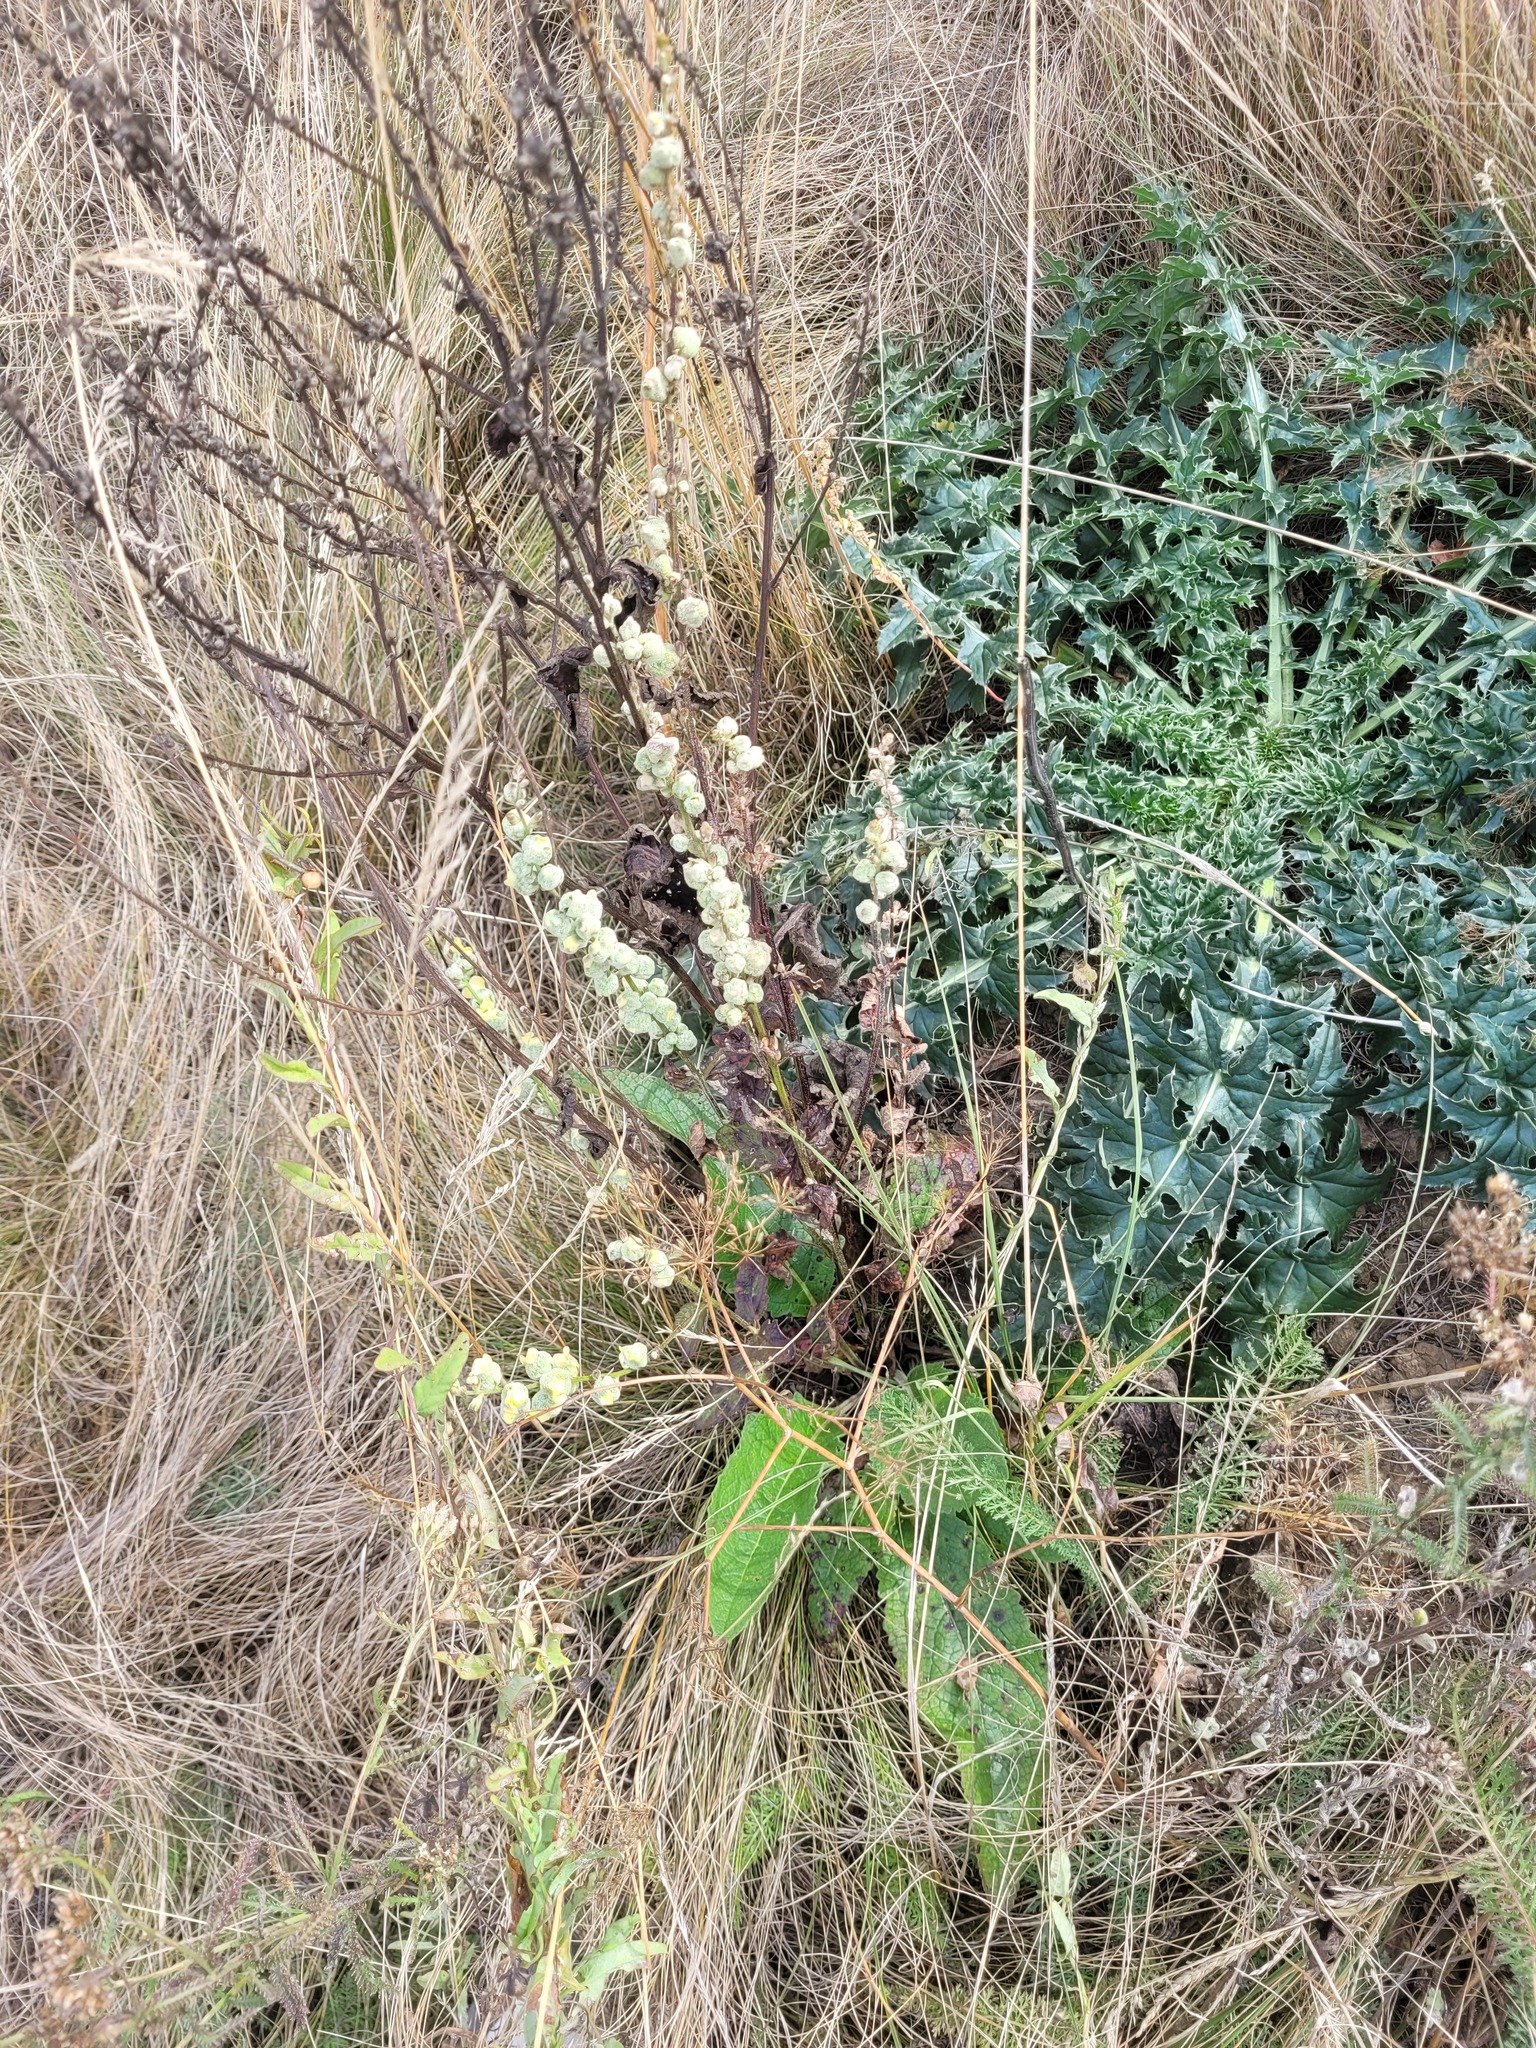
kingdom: Plantae
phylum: Tracheophyta
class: Magnoliopsida
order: Lamiales
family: Scrophulariaceae
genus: Verbascum
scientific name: Verbascum chaixii
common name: Nettle-leaved mullein
